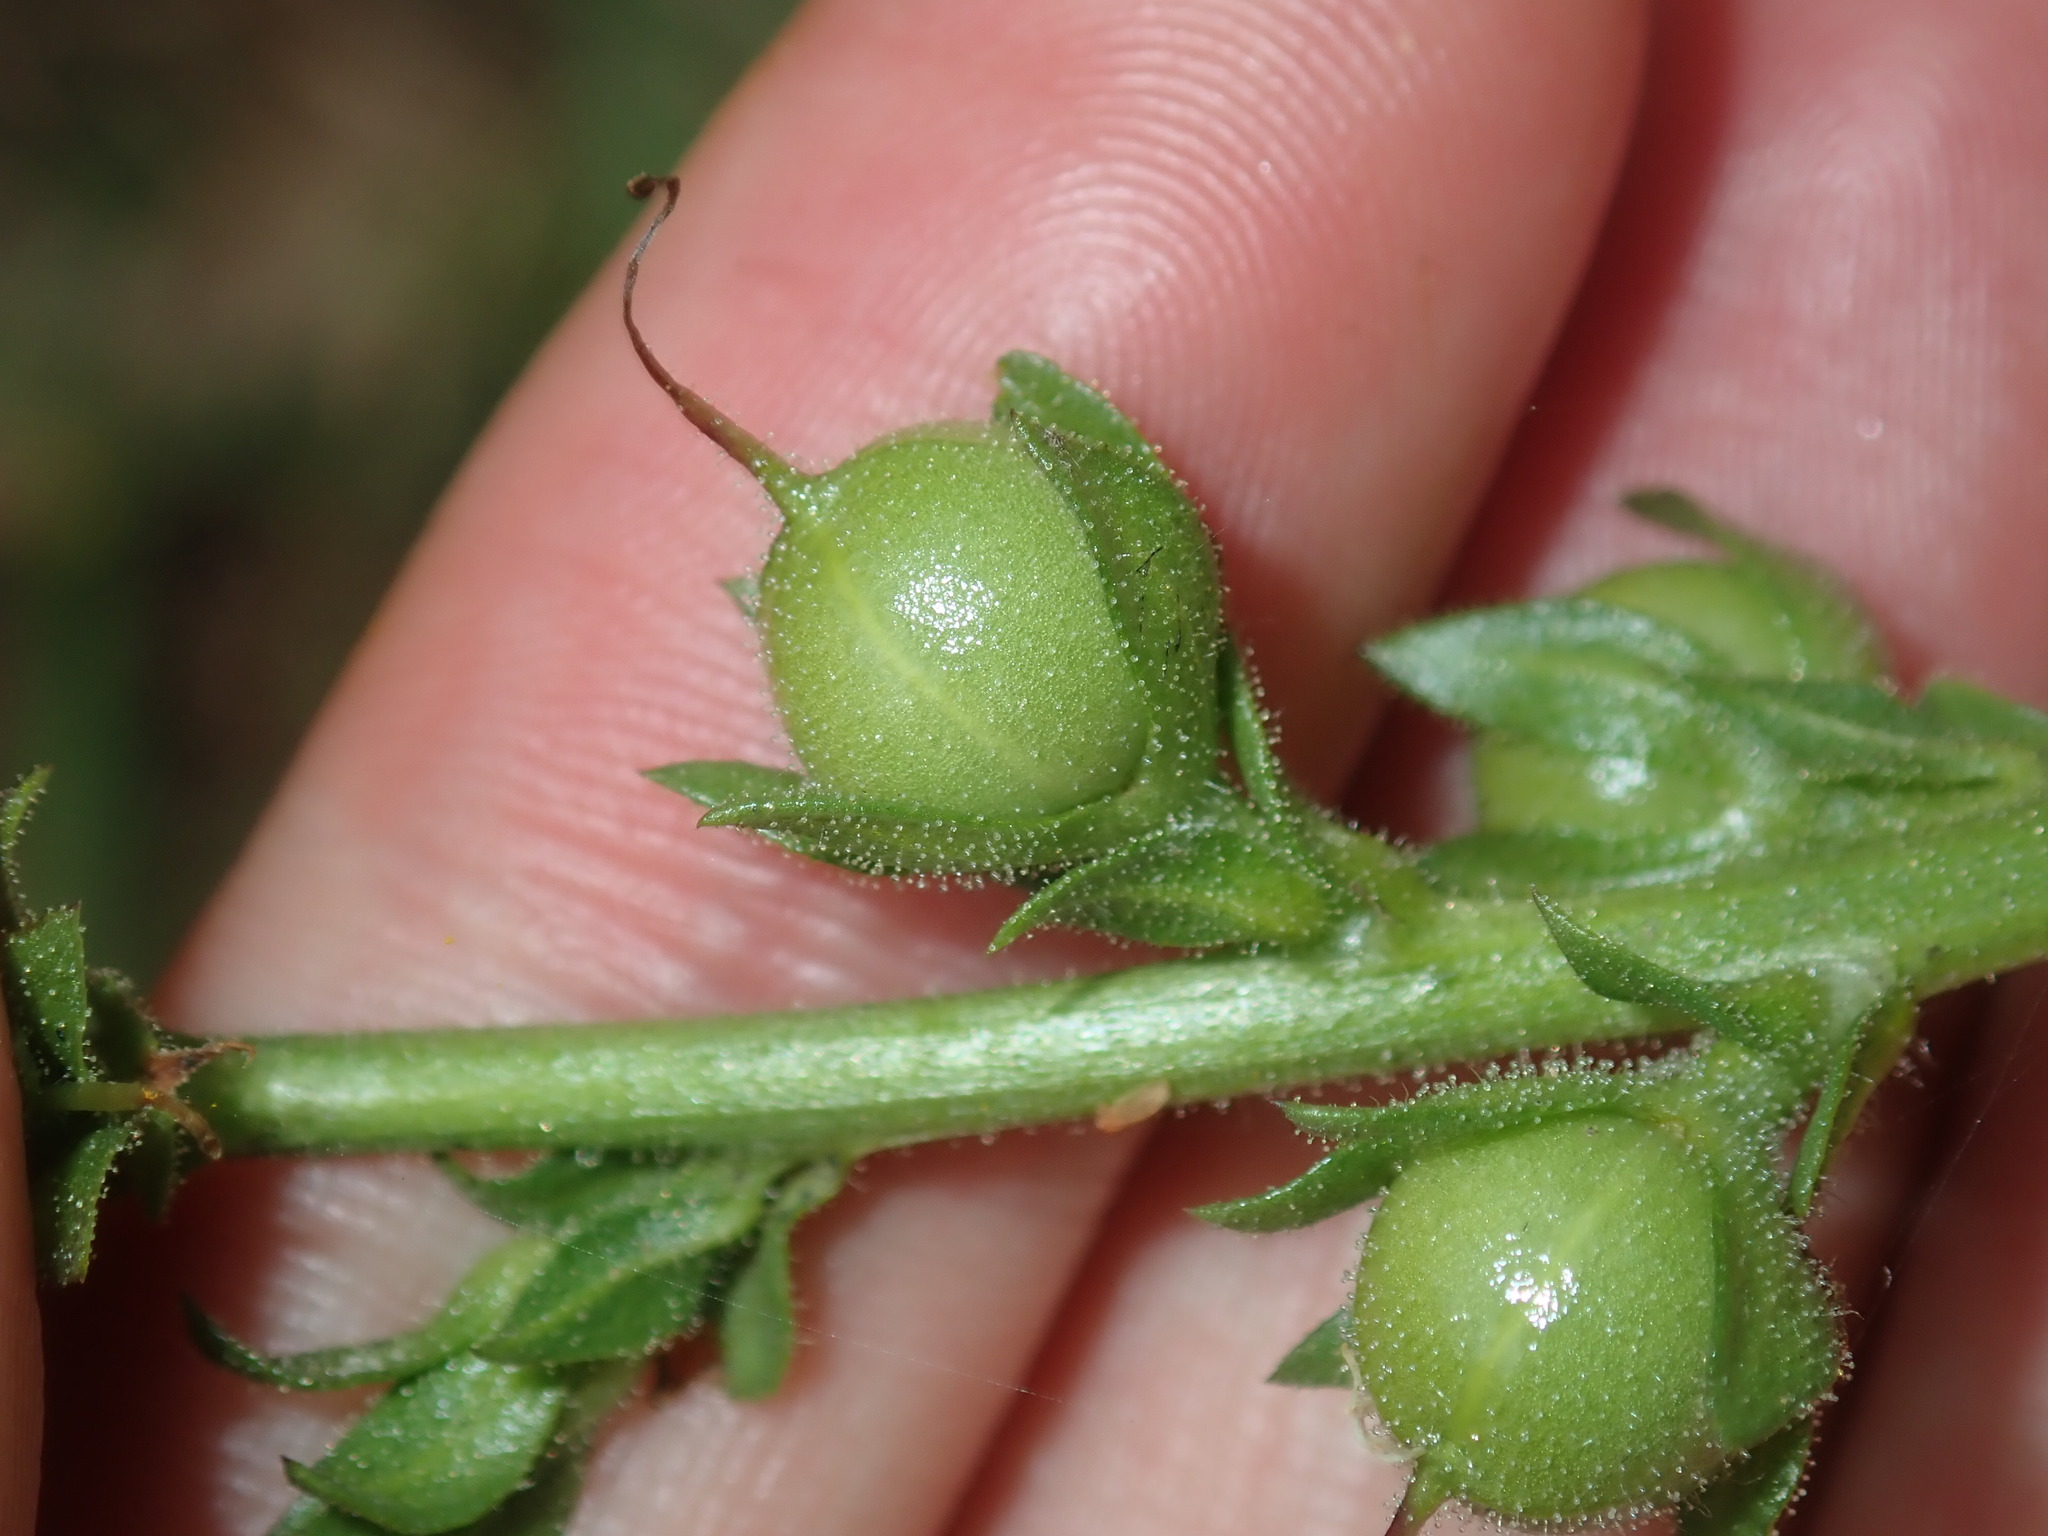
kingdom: Plantae
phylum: Tracheophyta
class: Magnoliopsida
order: Lamiales
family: Scrophulariaceae
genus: Verbascum
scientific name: Verbascum virgatum
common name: Twiggy mullein
